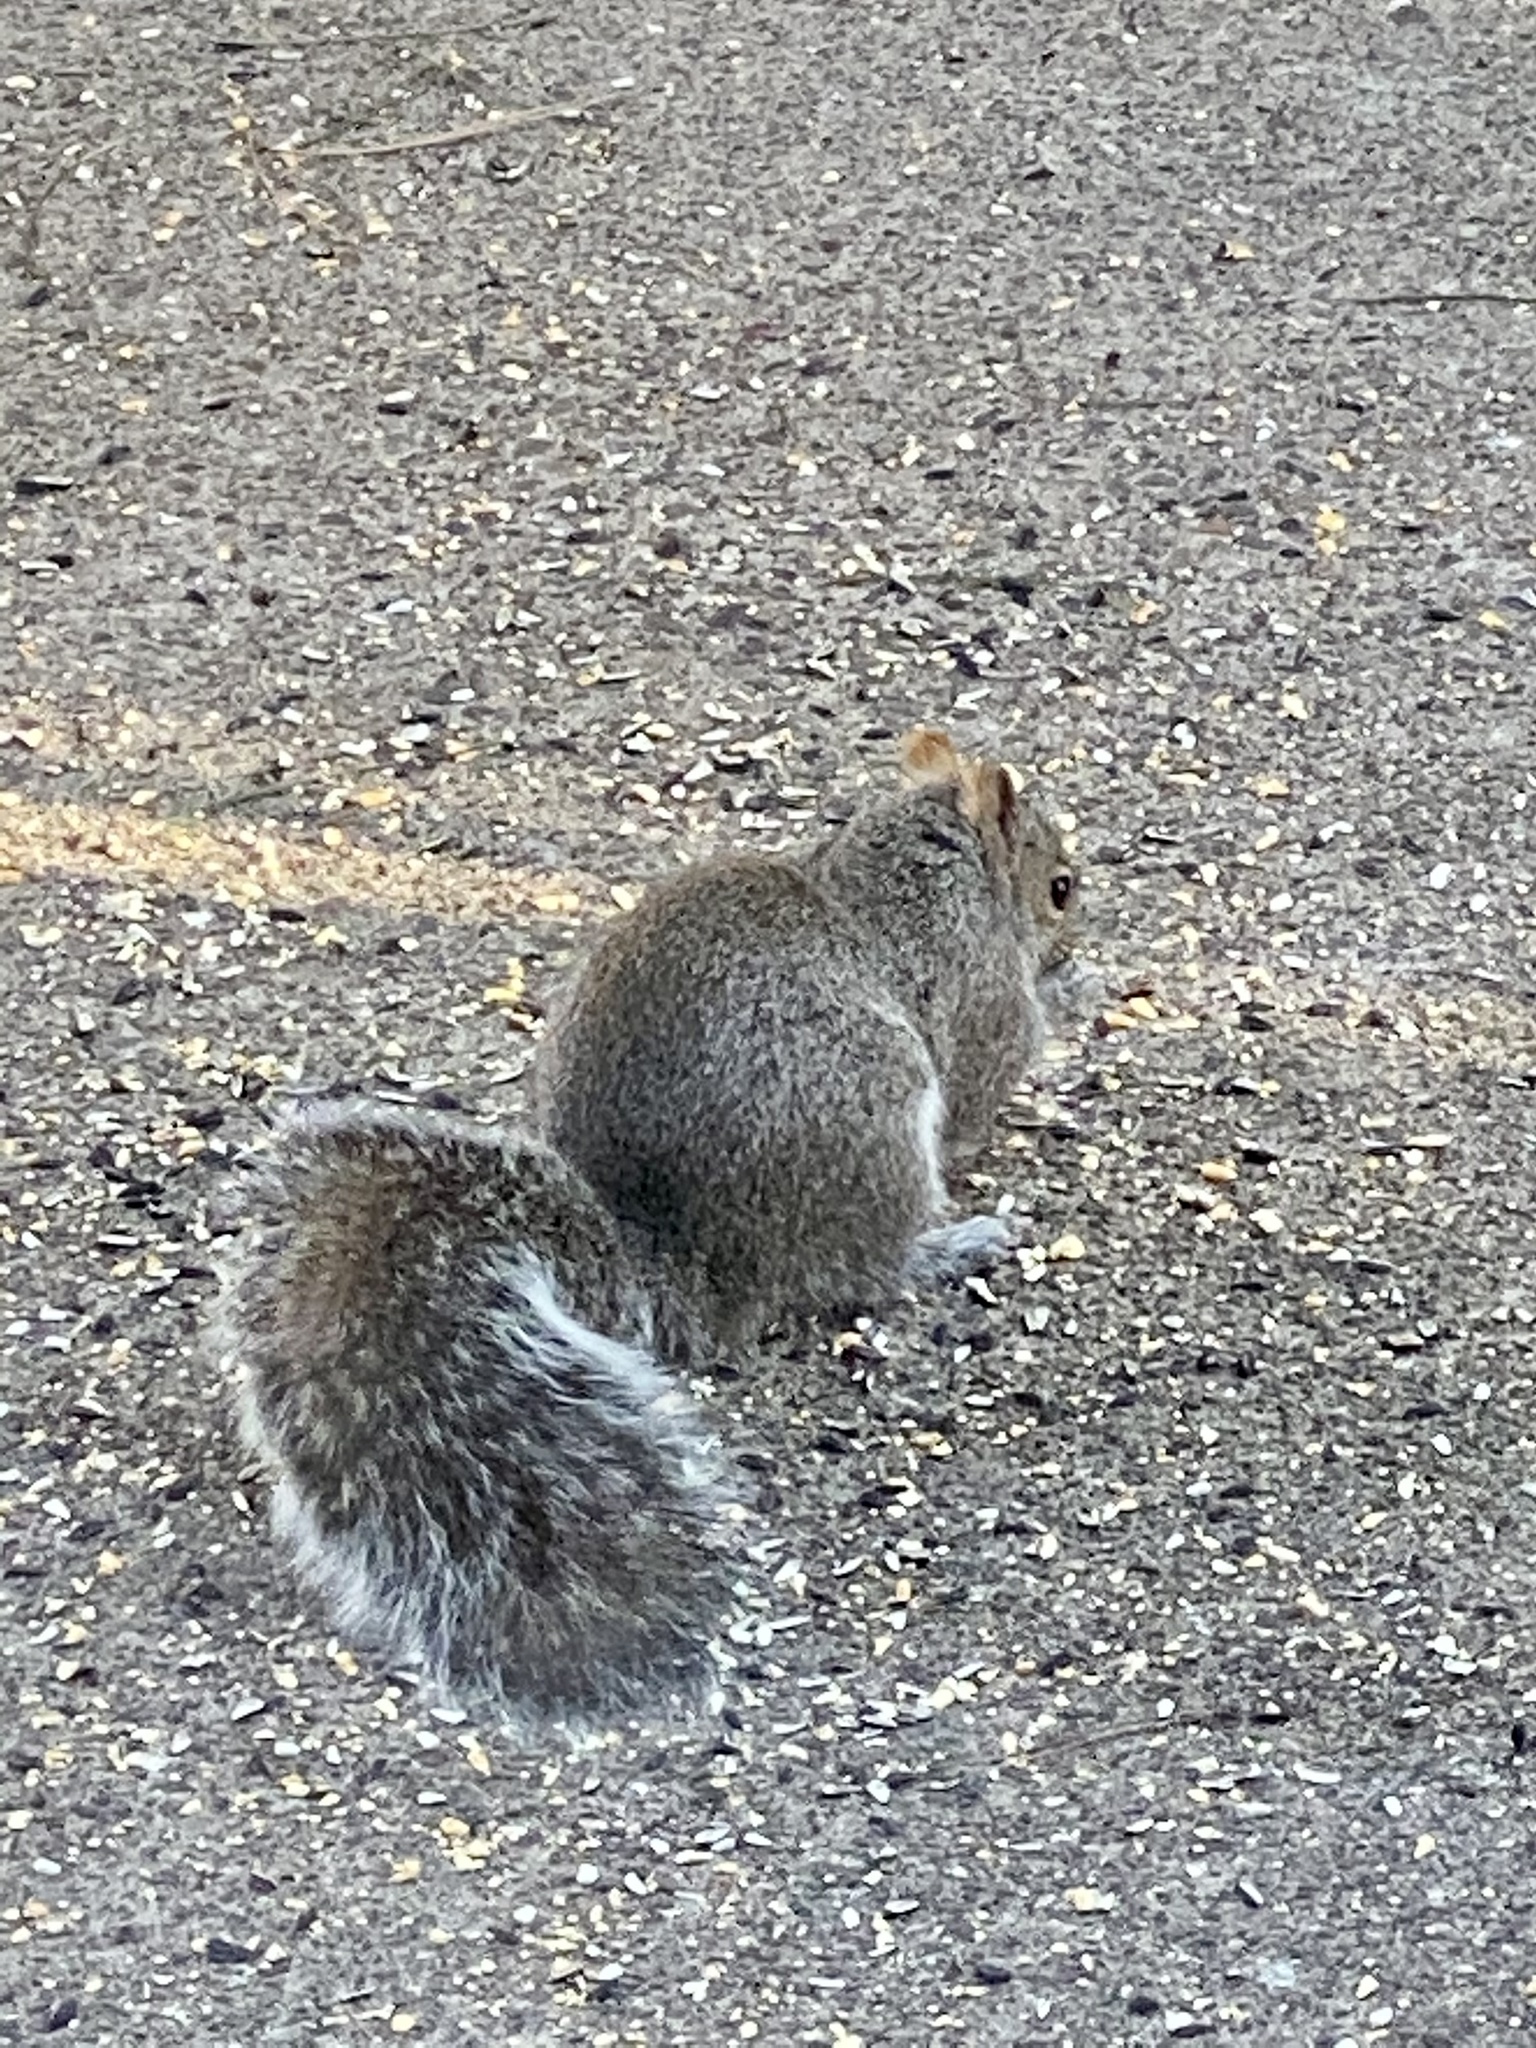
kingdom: Animalia
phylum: Chordata
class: Mammalia
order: Rodentia
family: Sciuridae
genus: Sciurus
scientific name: Sciurus carolinensis
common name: Eastern gray squirrel
